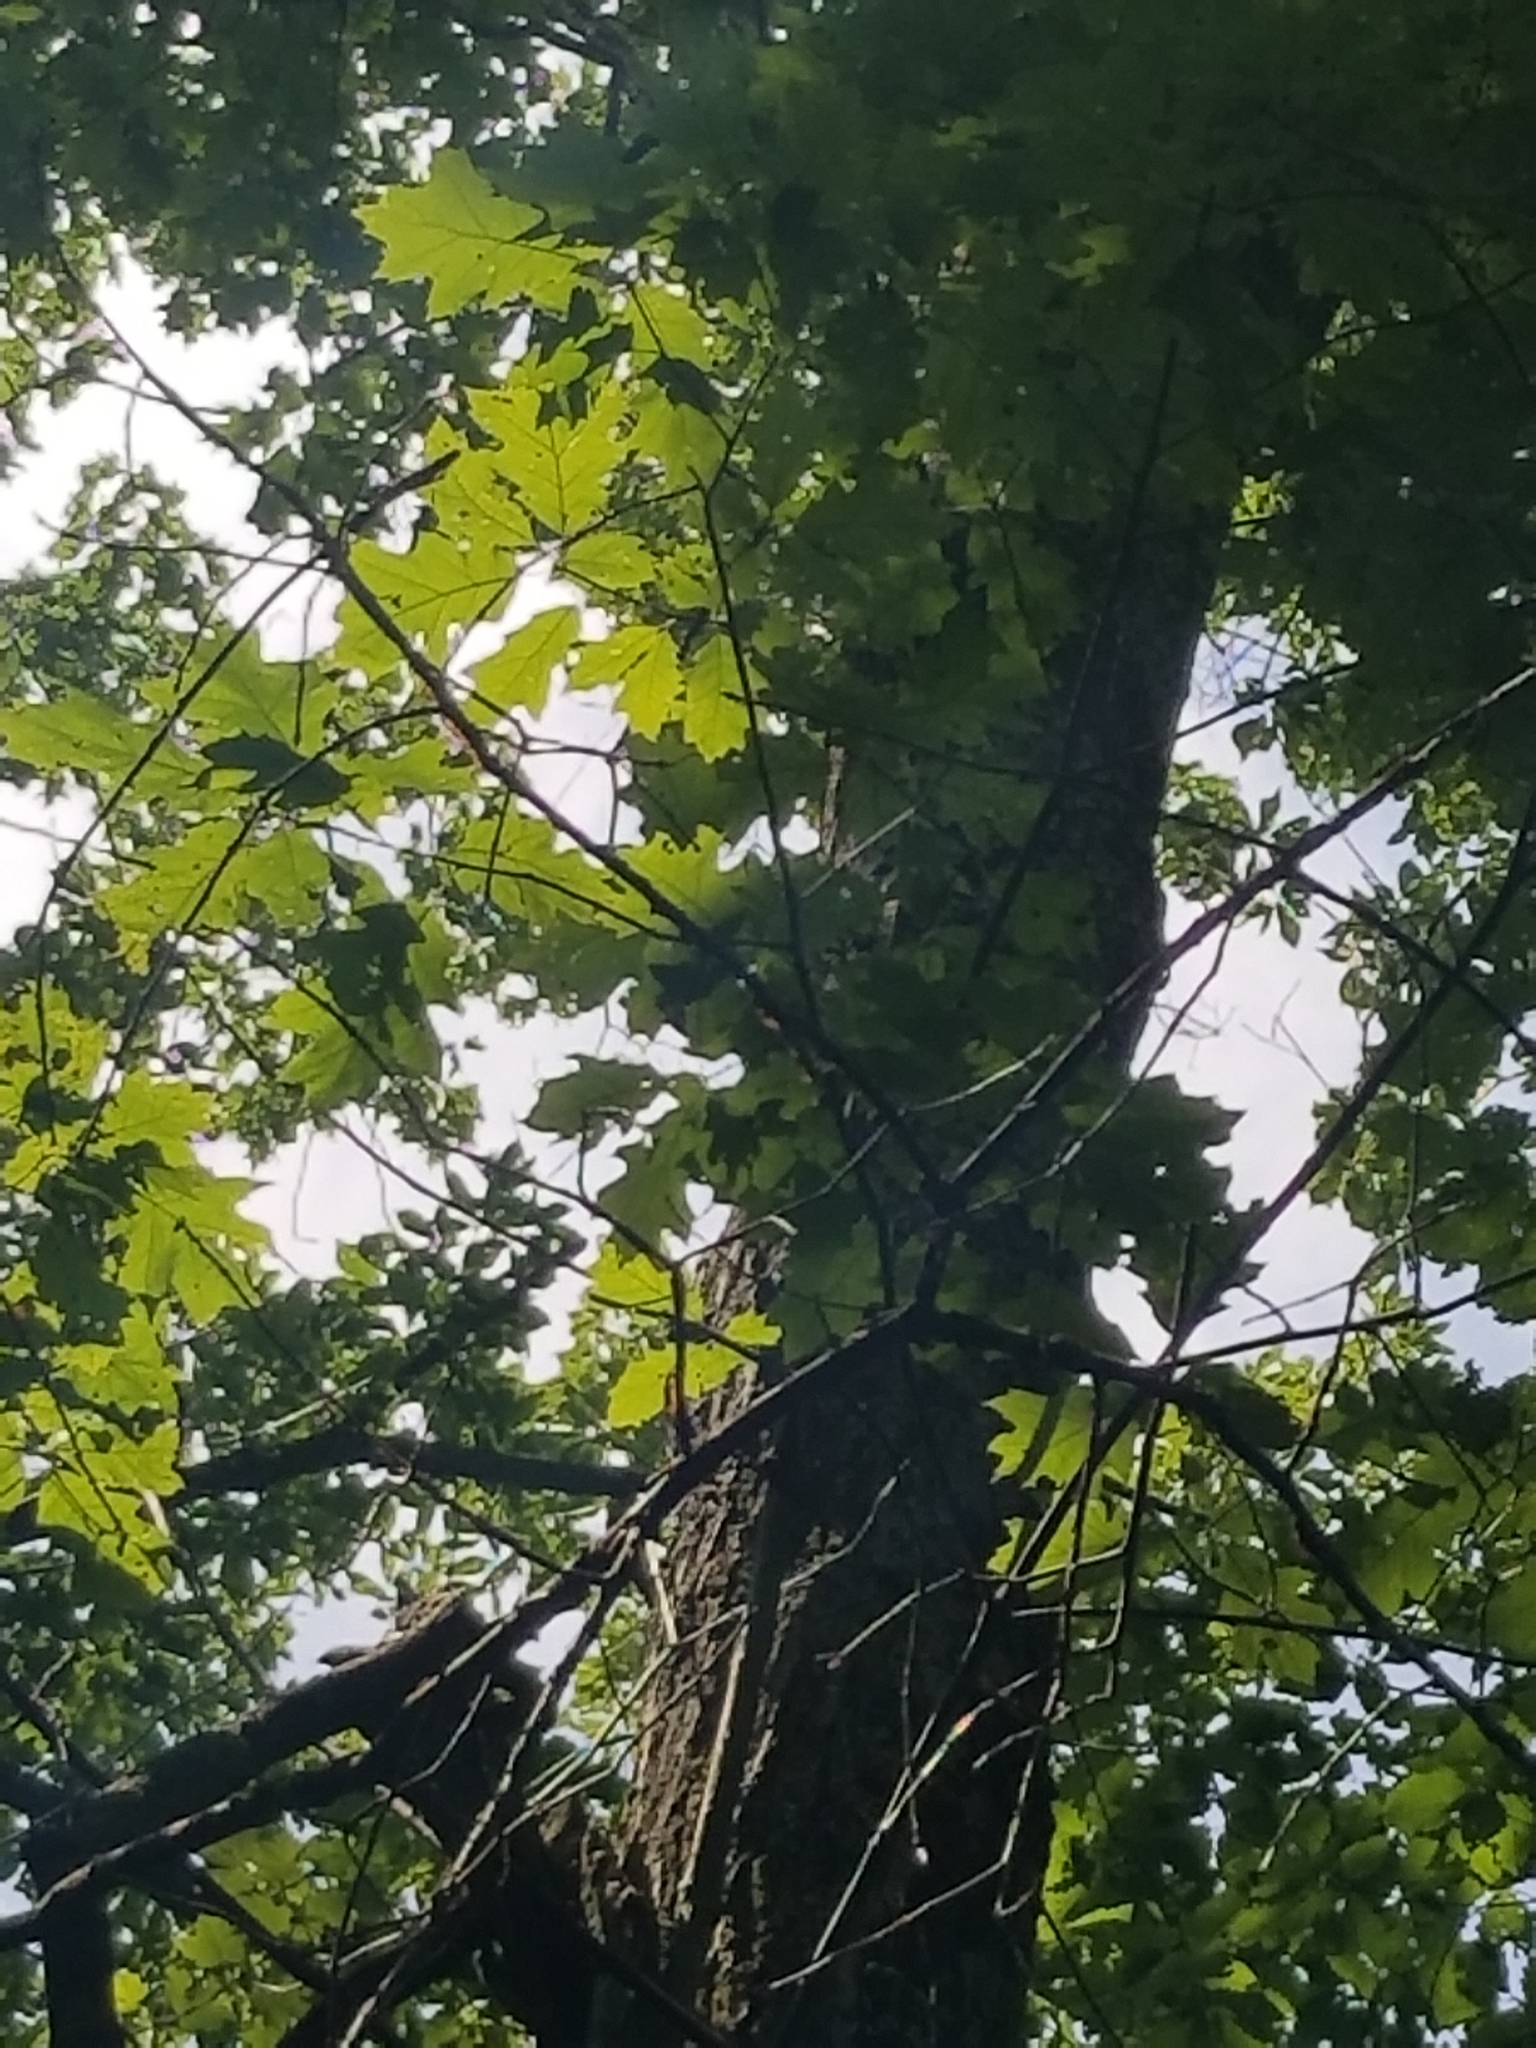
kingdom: Plantae
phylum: Tracheophyta
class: Magnoliopsida
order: Fagales
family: Fagaceae
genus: Quercus
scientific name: Quercus rubra
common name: Red oak
